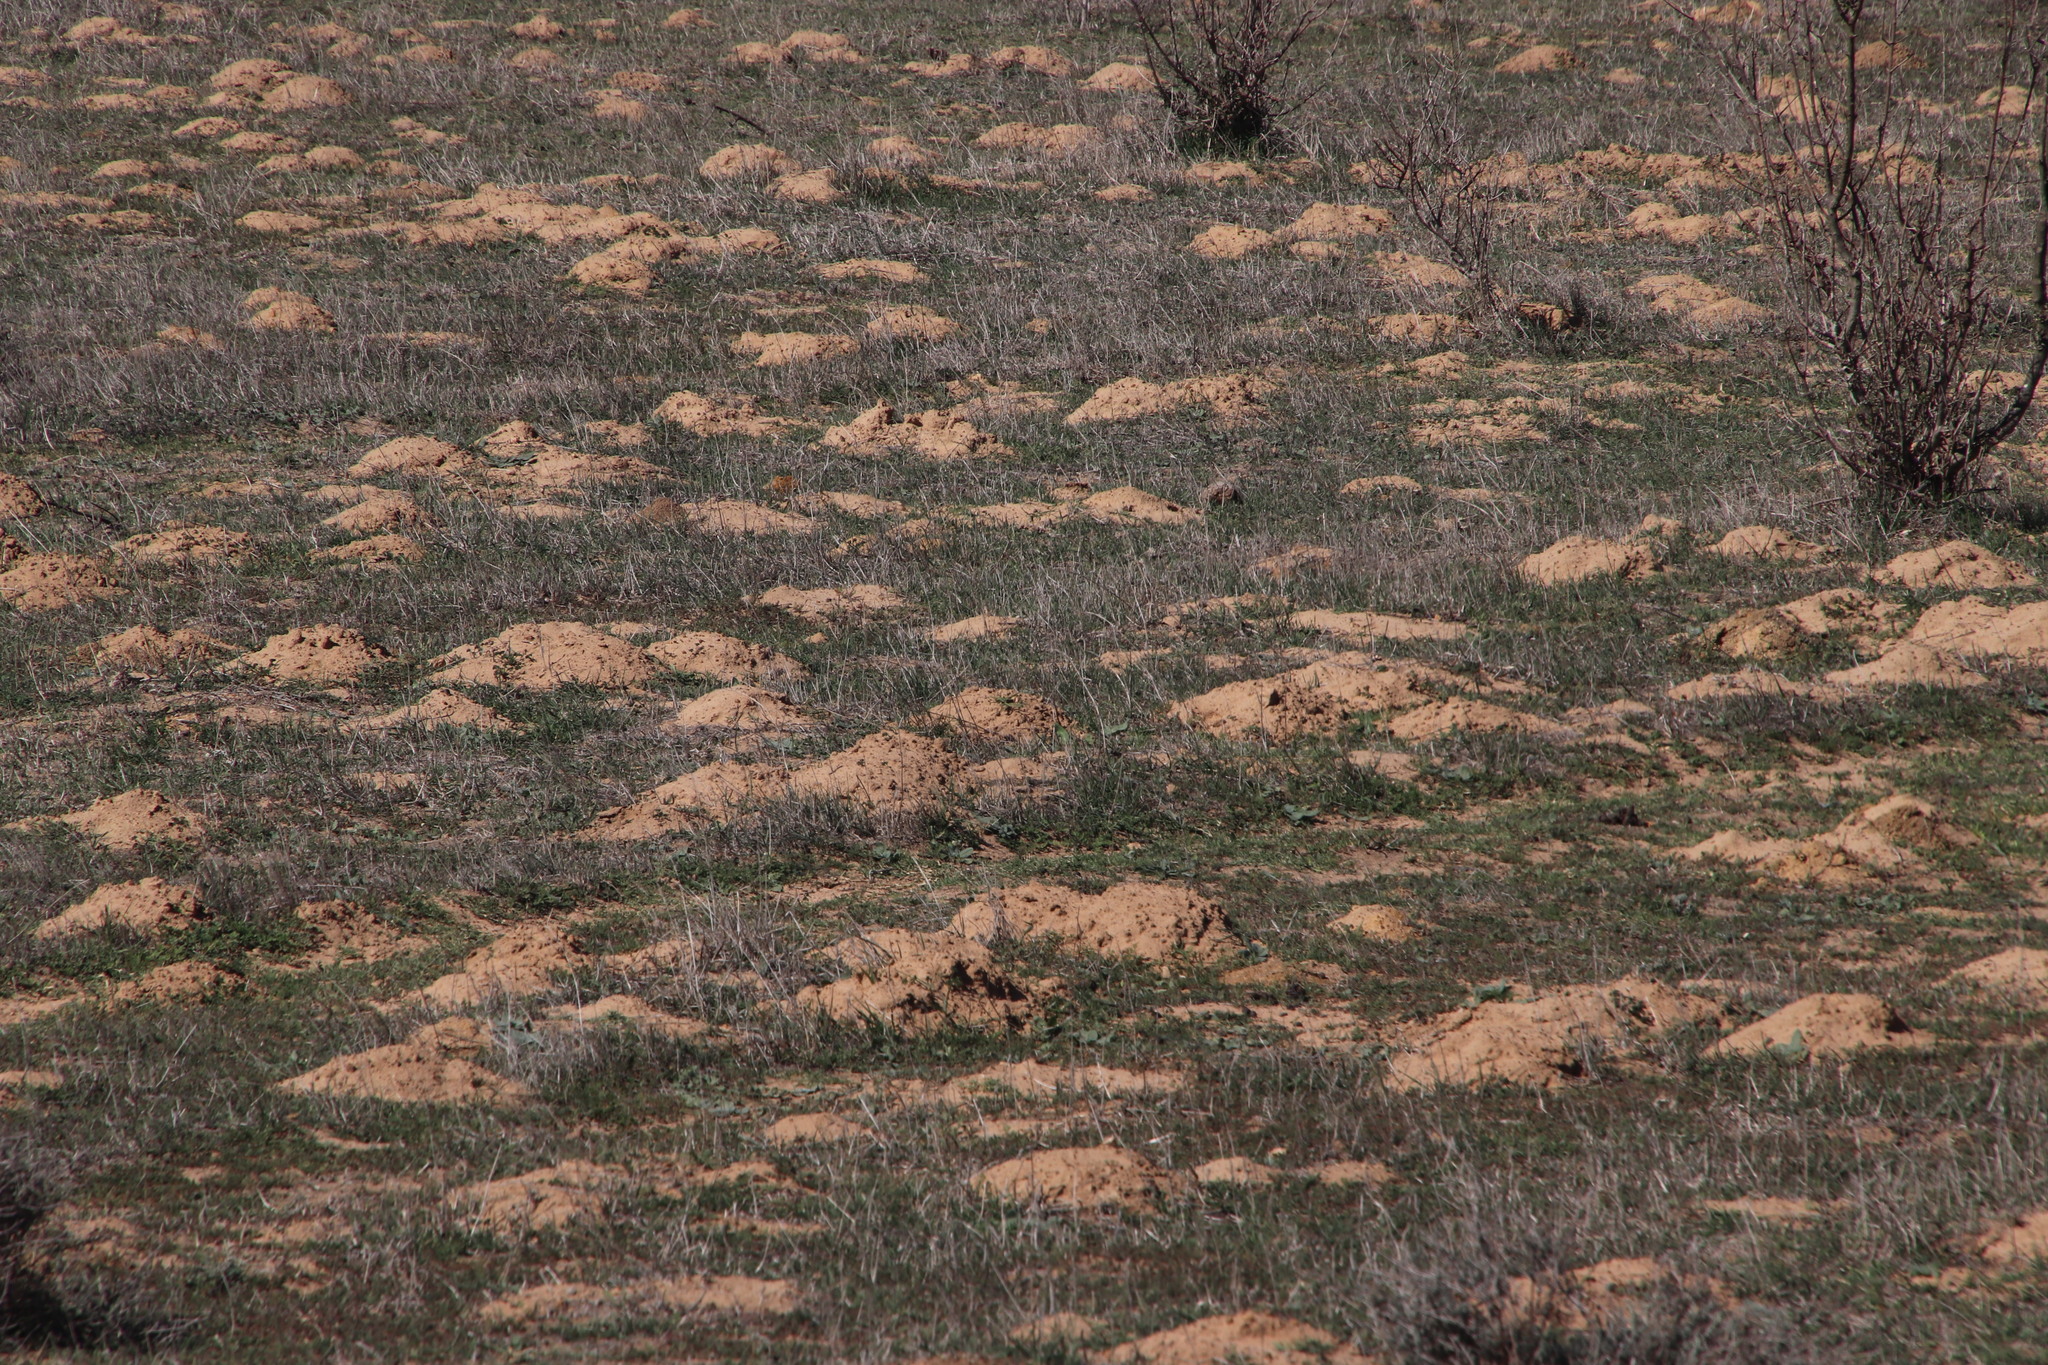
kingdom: Animalia
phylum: Chordata
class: Mammalia
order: Rodentia
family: Bathyergidae
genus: Bathyergus
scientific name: Bathyergus suillus
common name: Cape dune mole rat
